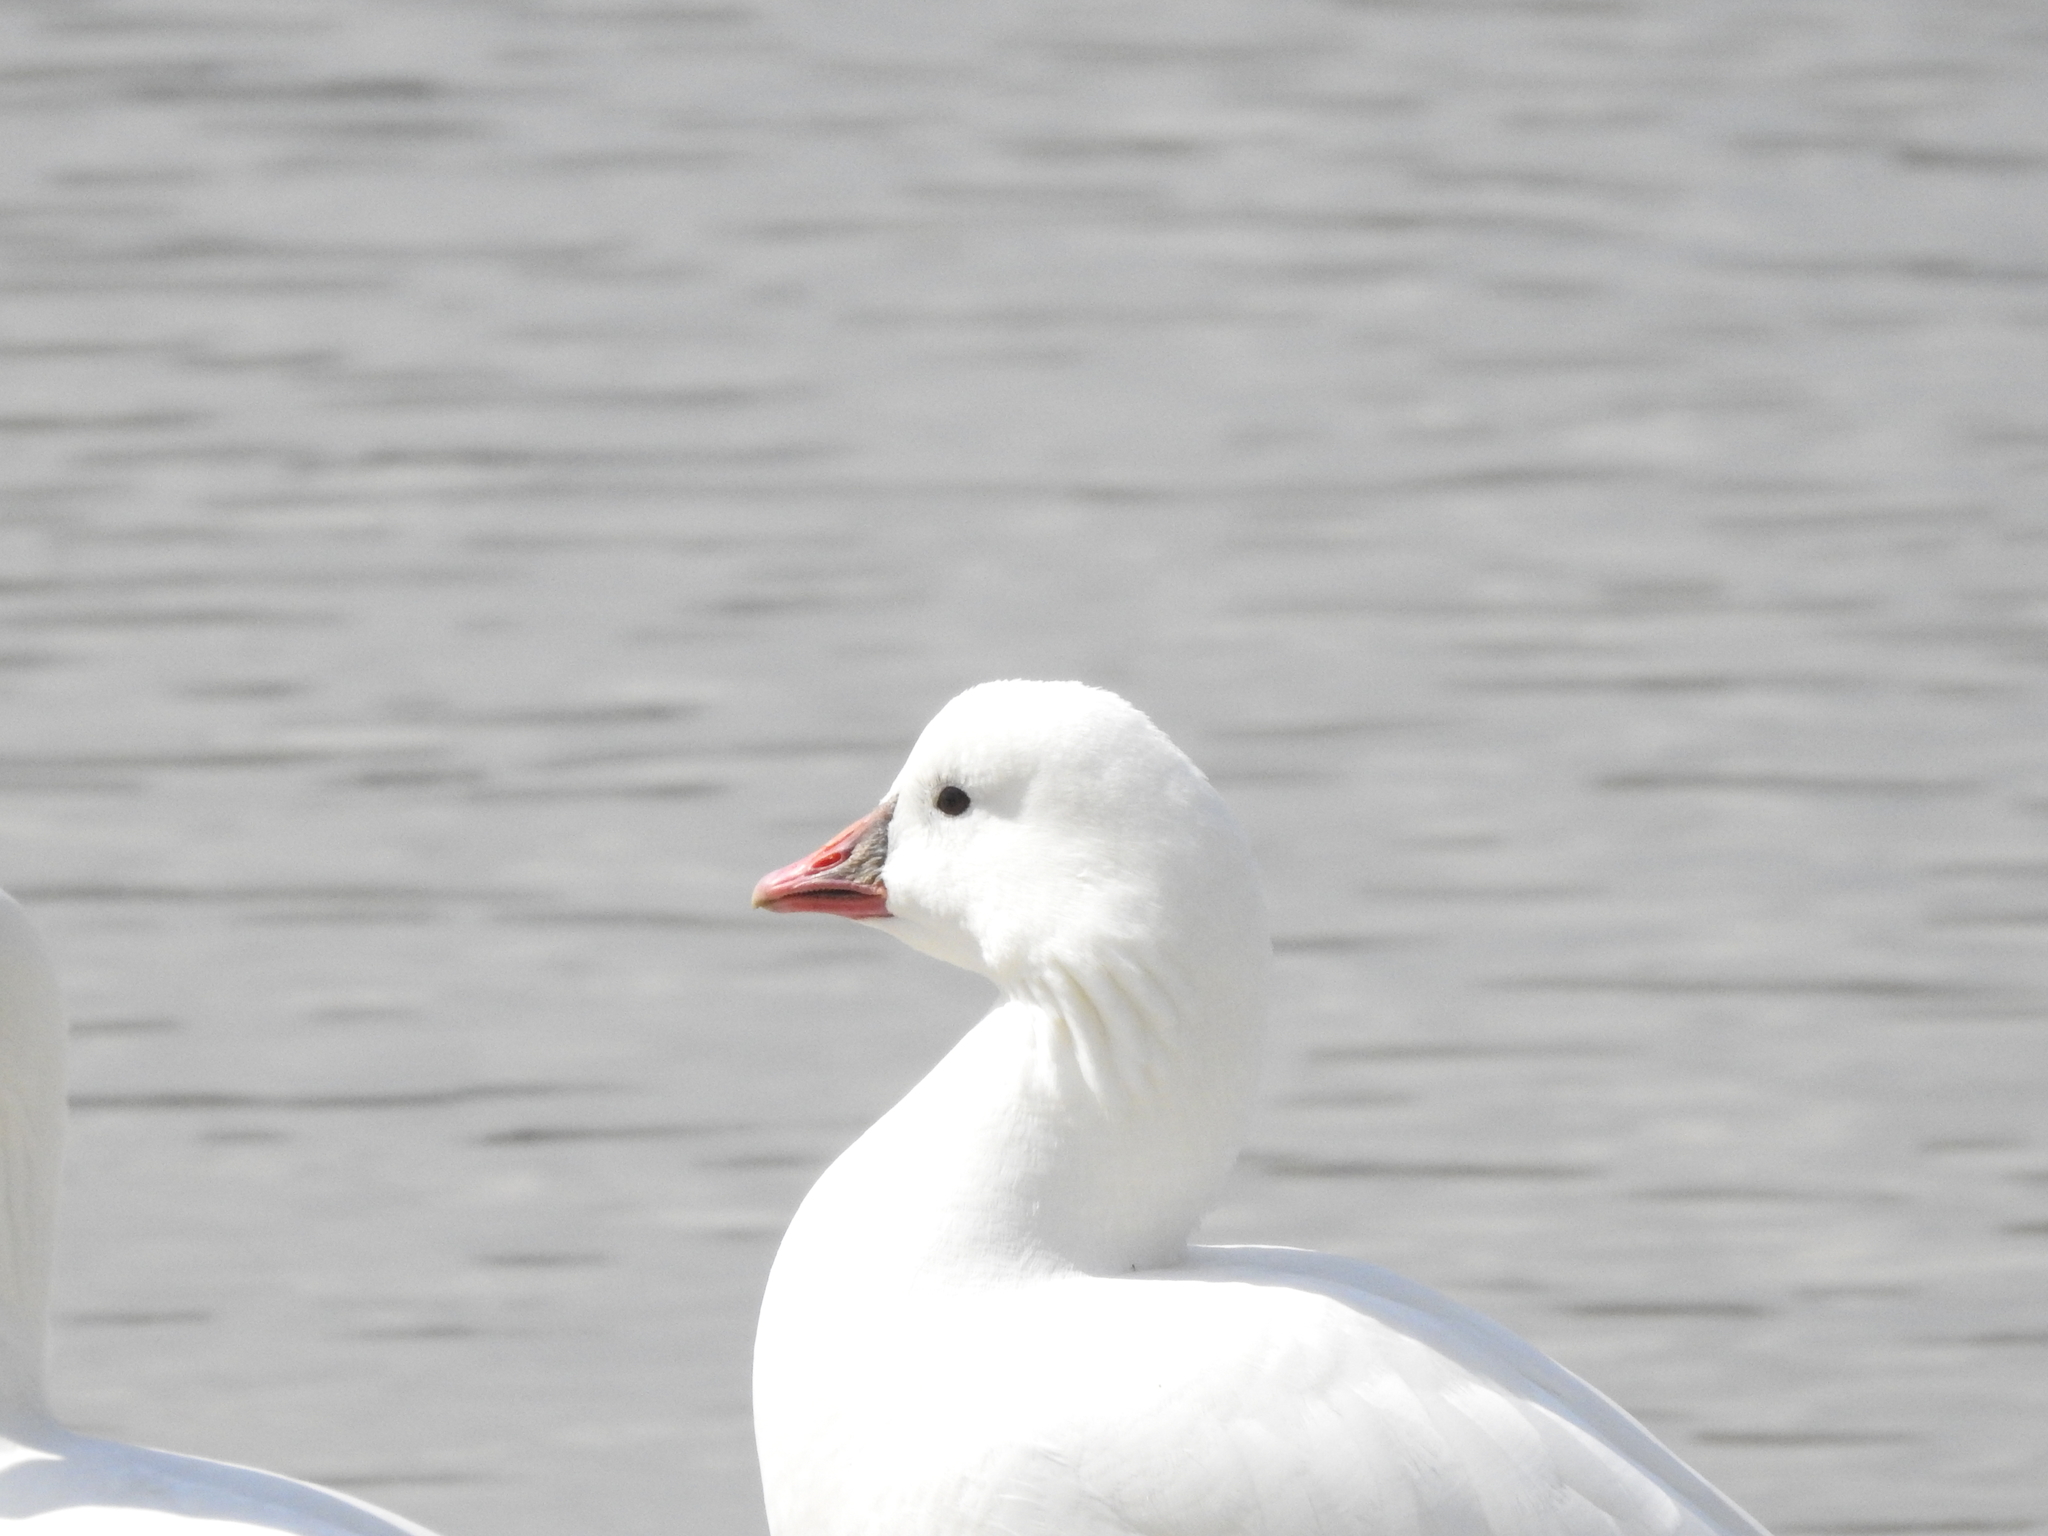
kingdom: Animalia
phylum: Chordata
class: Aves
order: Anseriformes
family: Anatidae
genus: Anser
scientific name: Anser rossii
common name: Ross's goose
